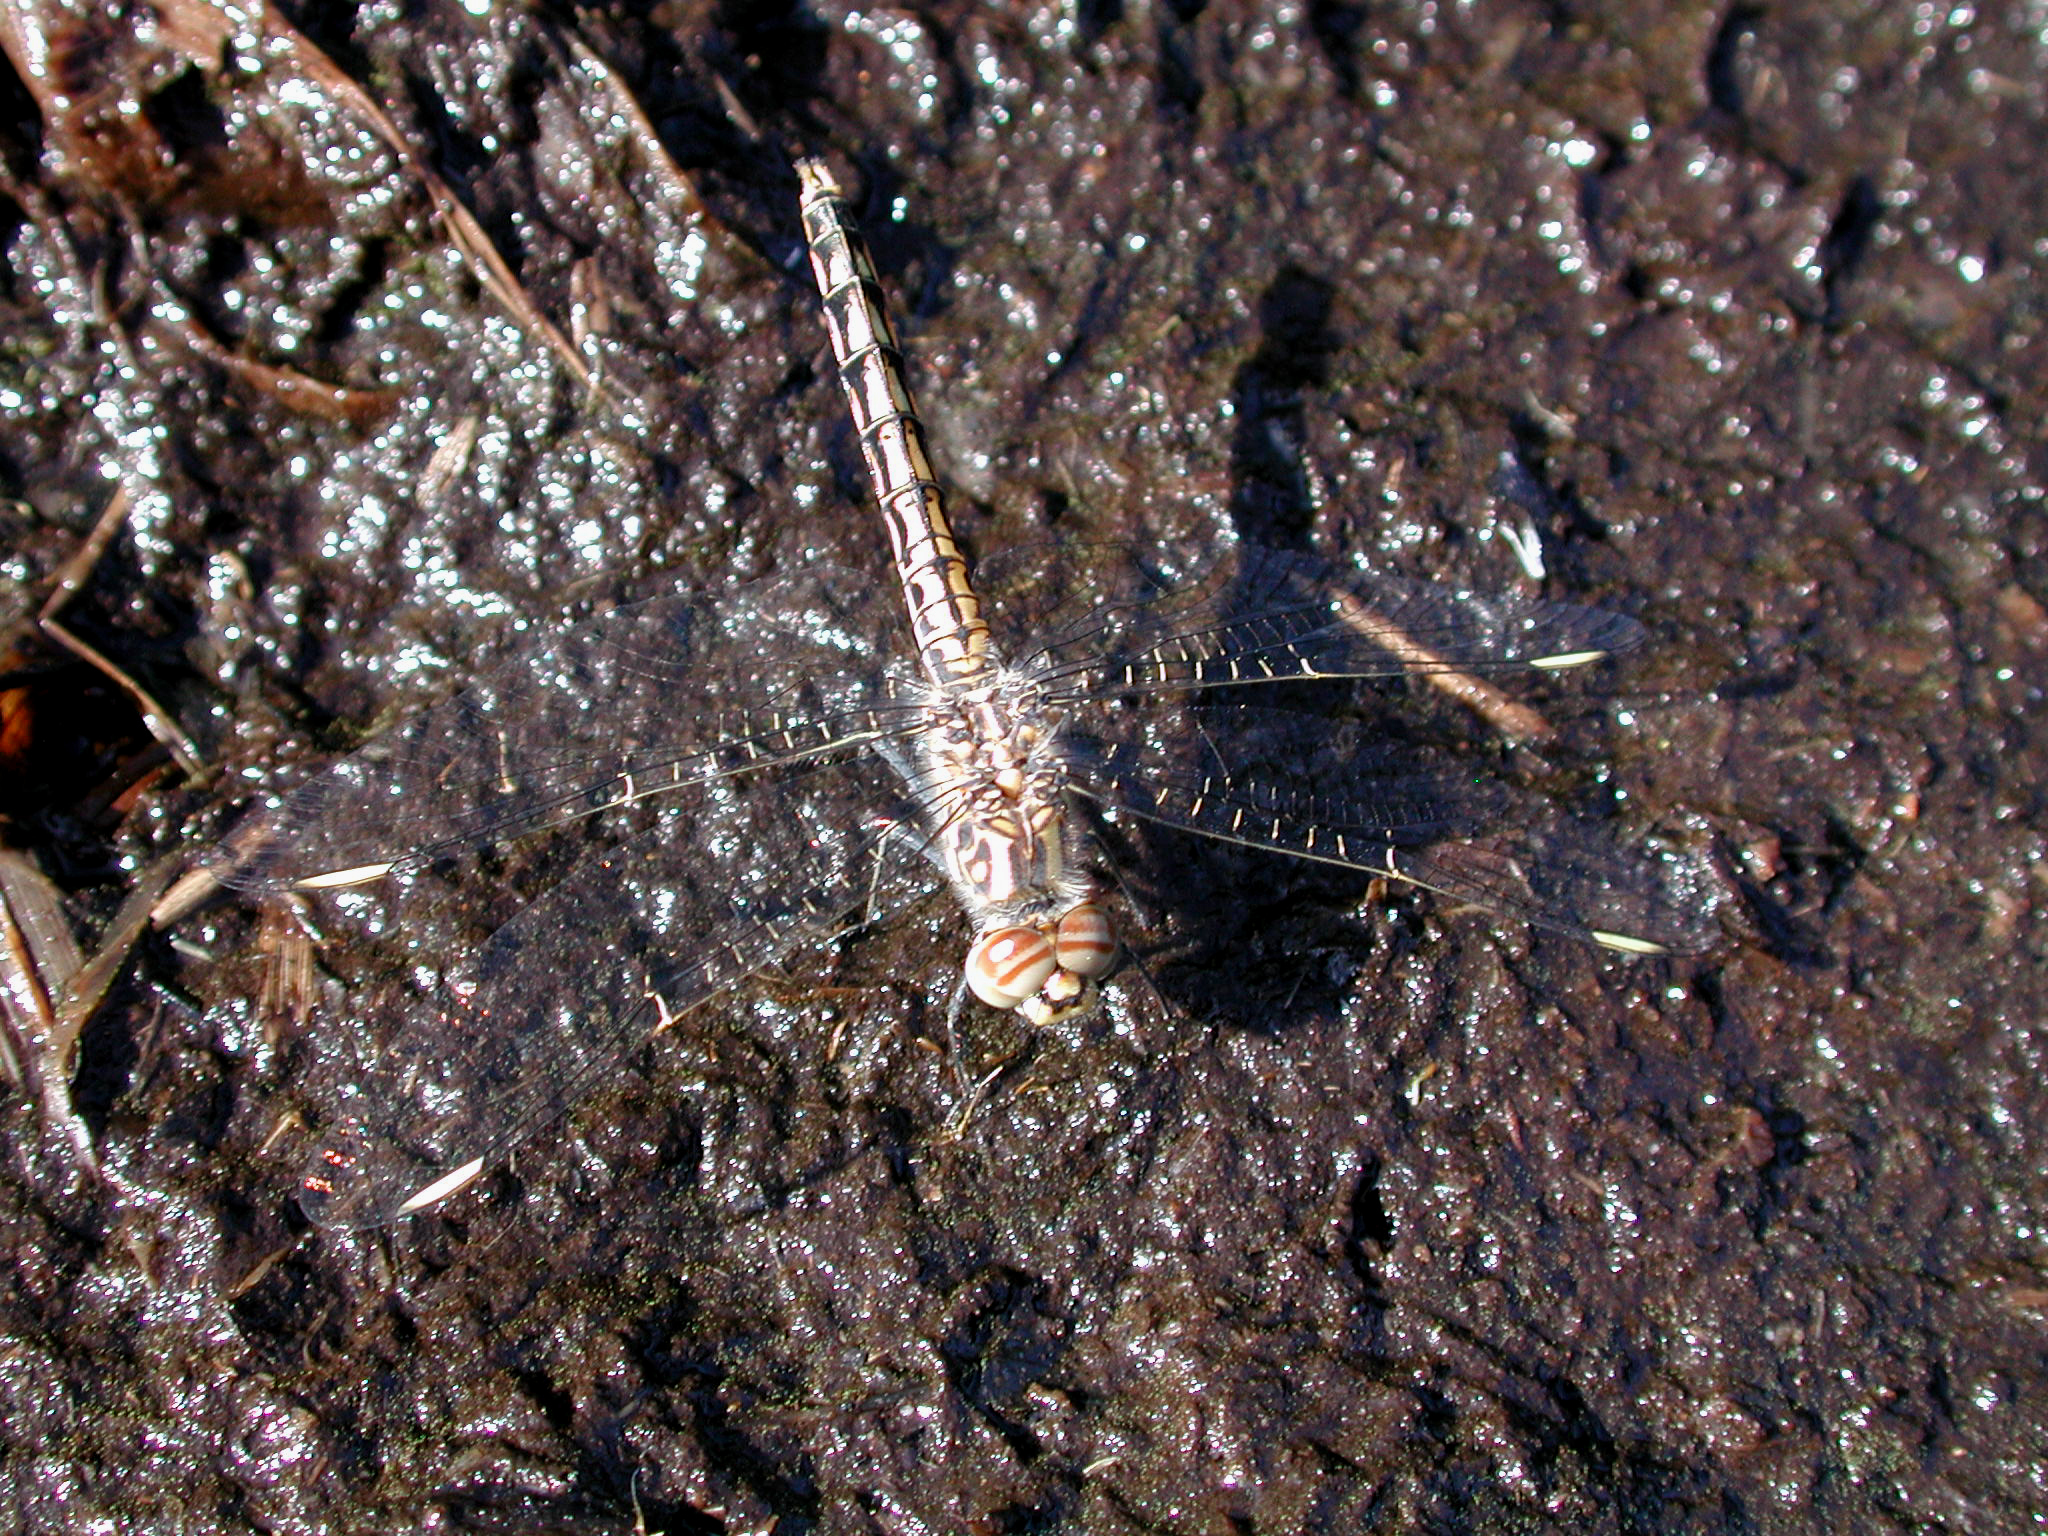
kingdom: Animalia
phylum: Arthropoda
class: Insecta
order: Odonata
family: Libellulidae
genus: Brachythemis
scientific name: Brachythemis leucosticta
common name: Banded groundling
